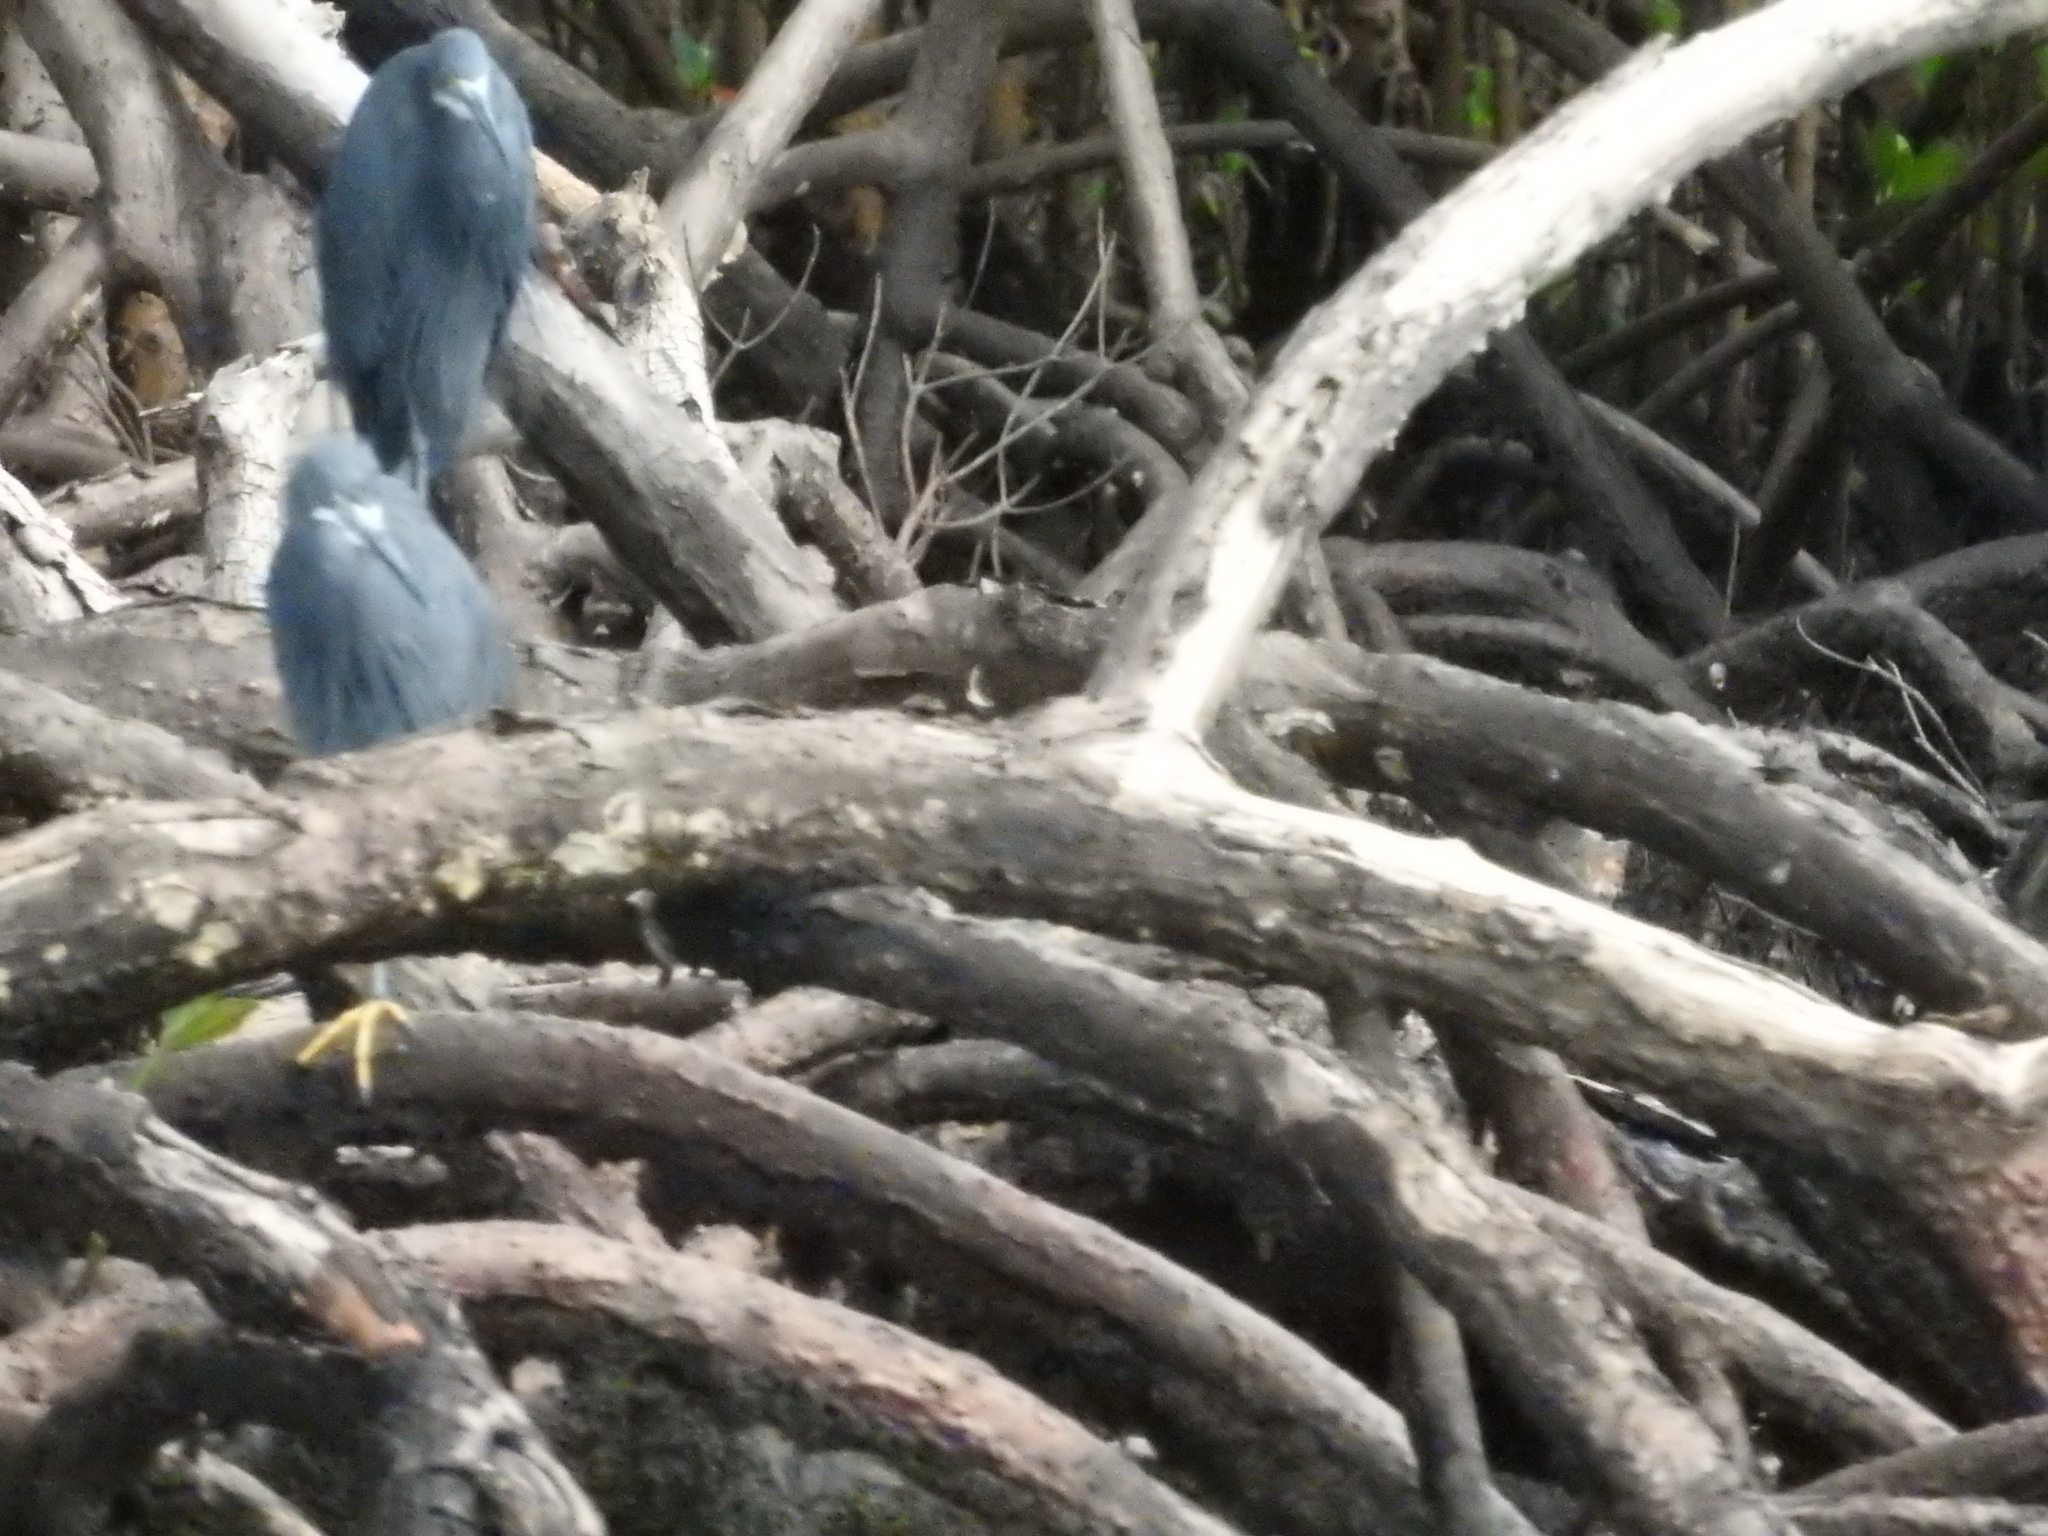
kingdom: Animalia
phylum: Chordata
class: Aves
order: Pelecaniformes
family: Ardeidae
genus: Egretta
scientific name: Egretta dimorpha
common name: Dimorphic egret
